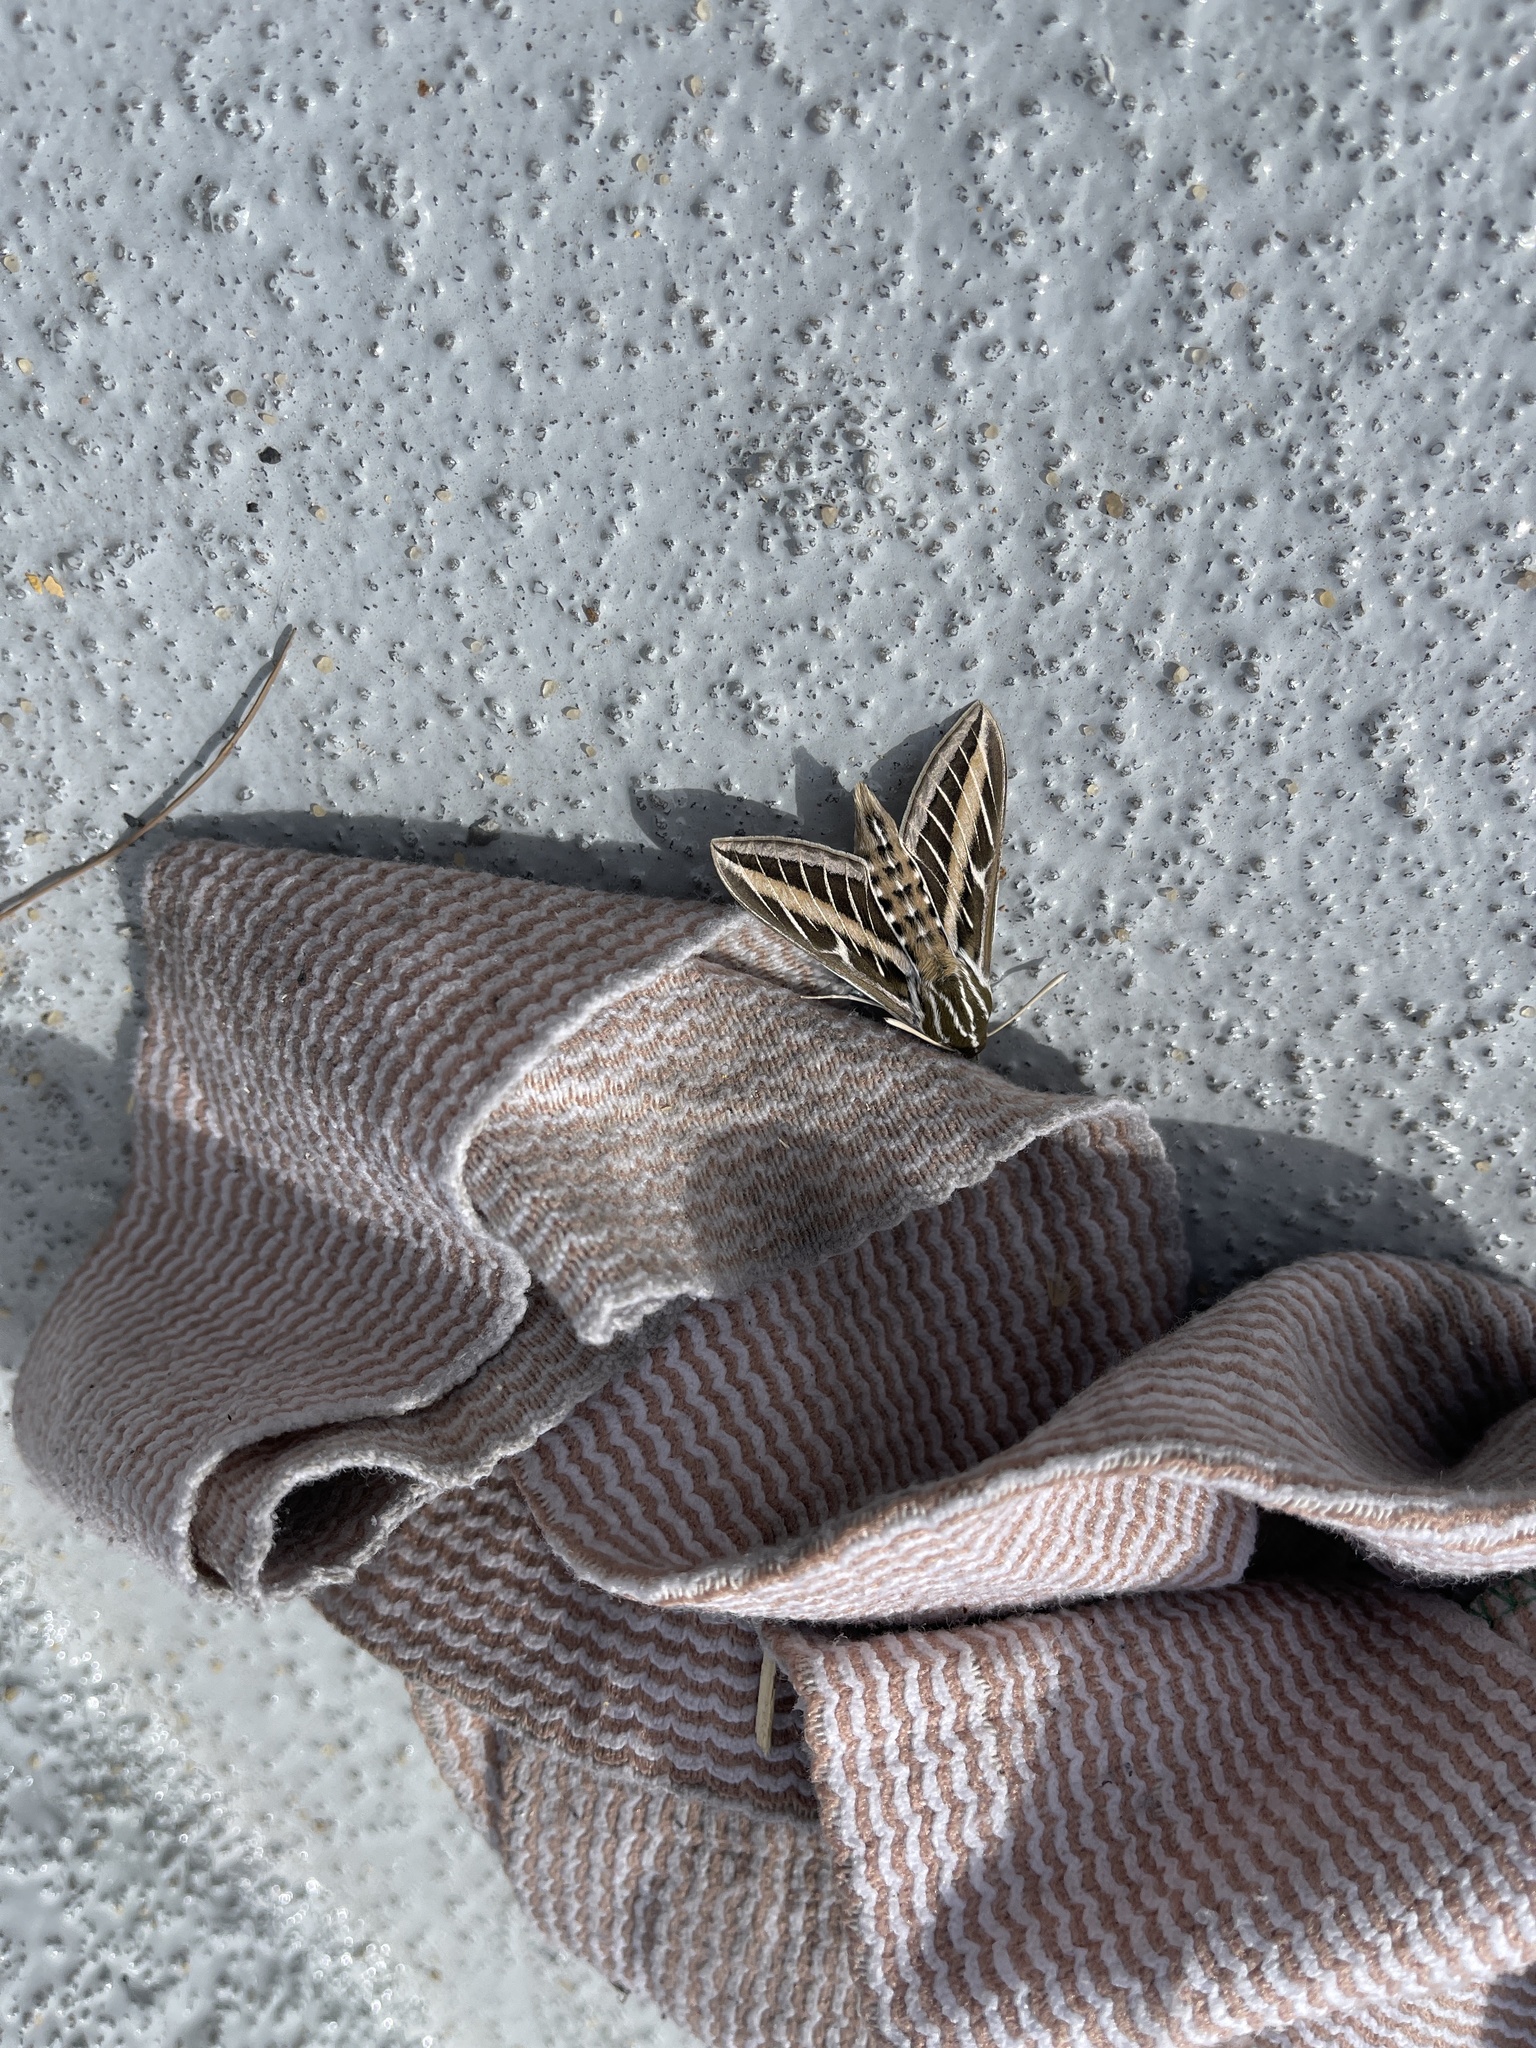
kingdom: Animalia
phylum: Arthropoda
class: Insecta
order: Lepidoptera
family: Sphingidae
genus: Hyles
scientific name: Hyles lineata
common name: White-lined sphinx
